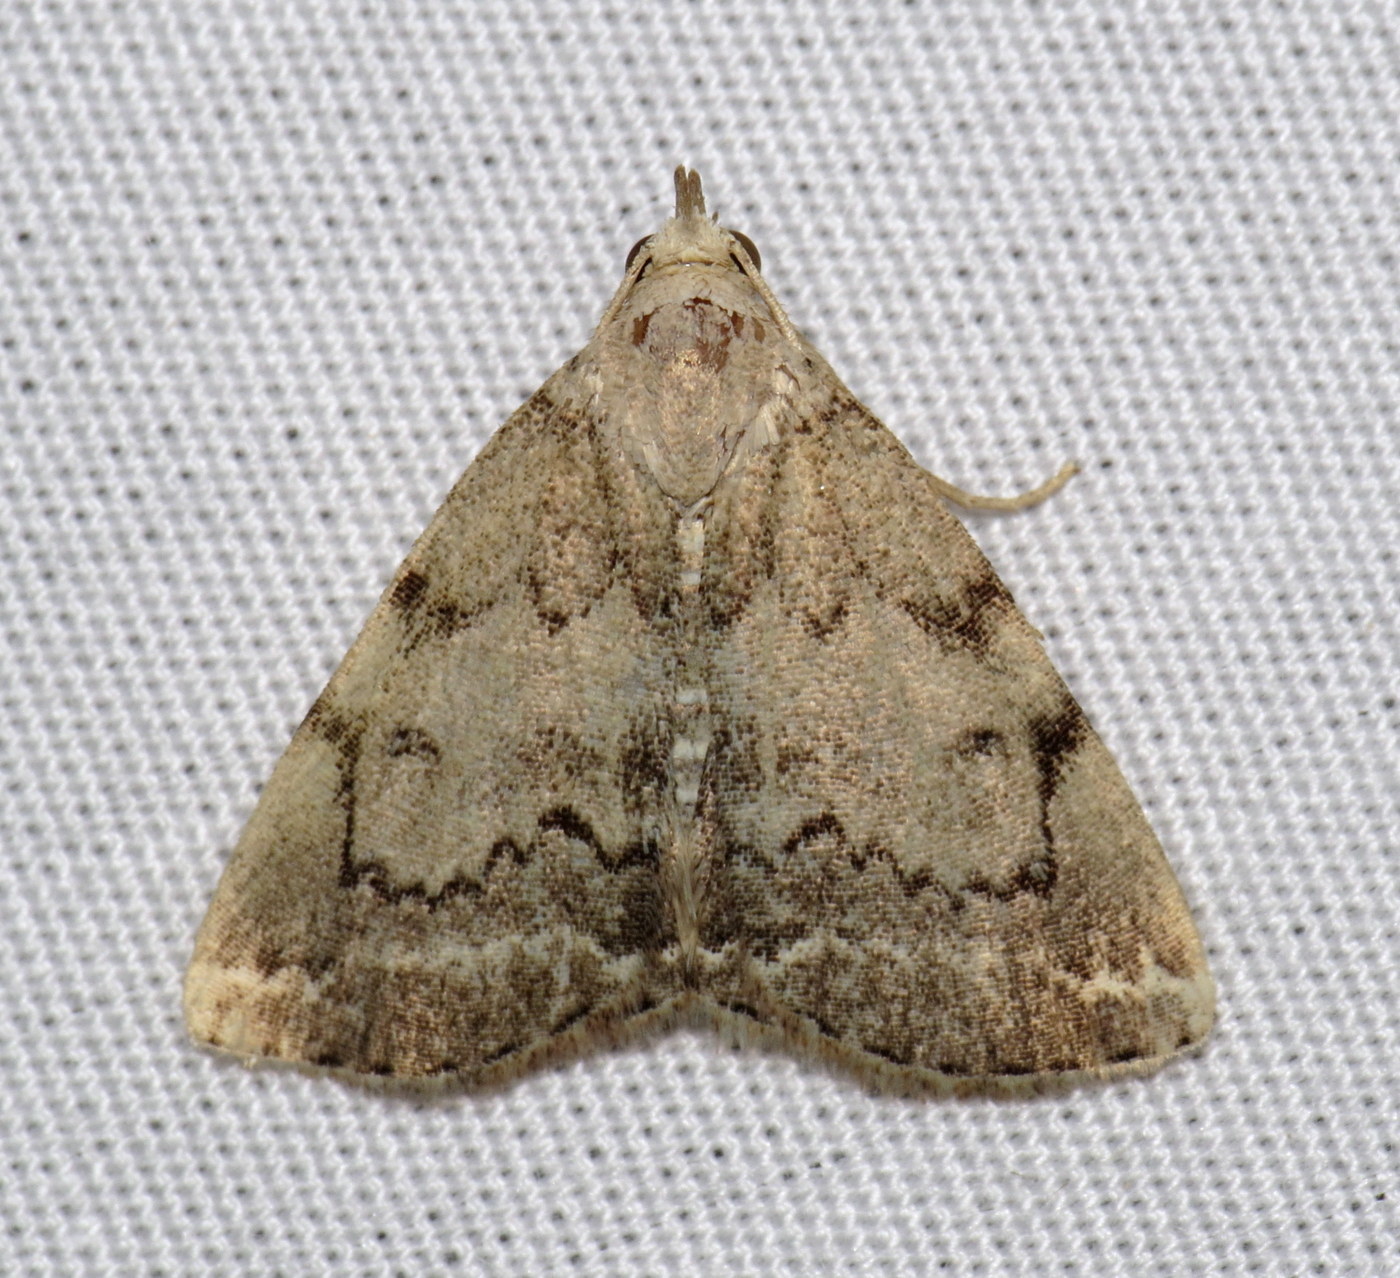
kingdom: Animalia
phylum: Arthropoda
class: Insecta
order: Lepidoptera
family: Erebidae
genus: Zanclognatha
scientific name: Zanclognatha theralis
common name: Flagged fan-foot
